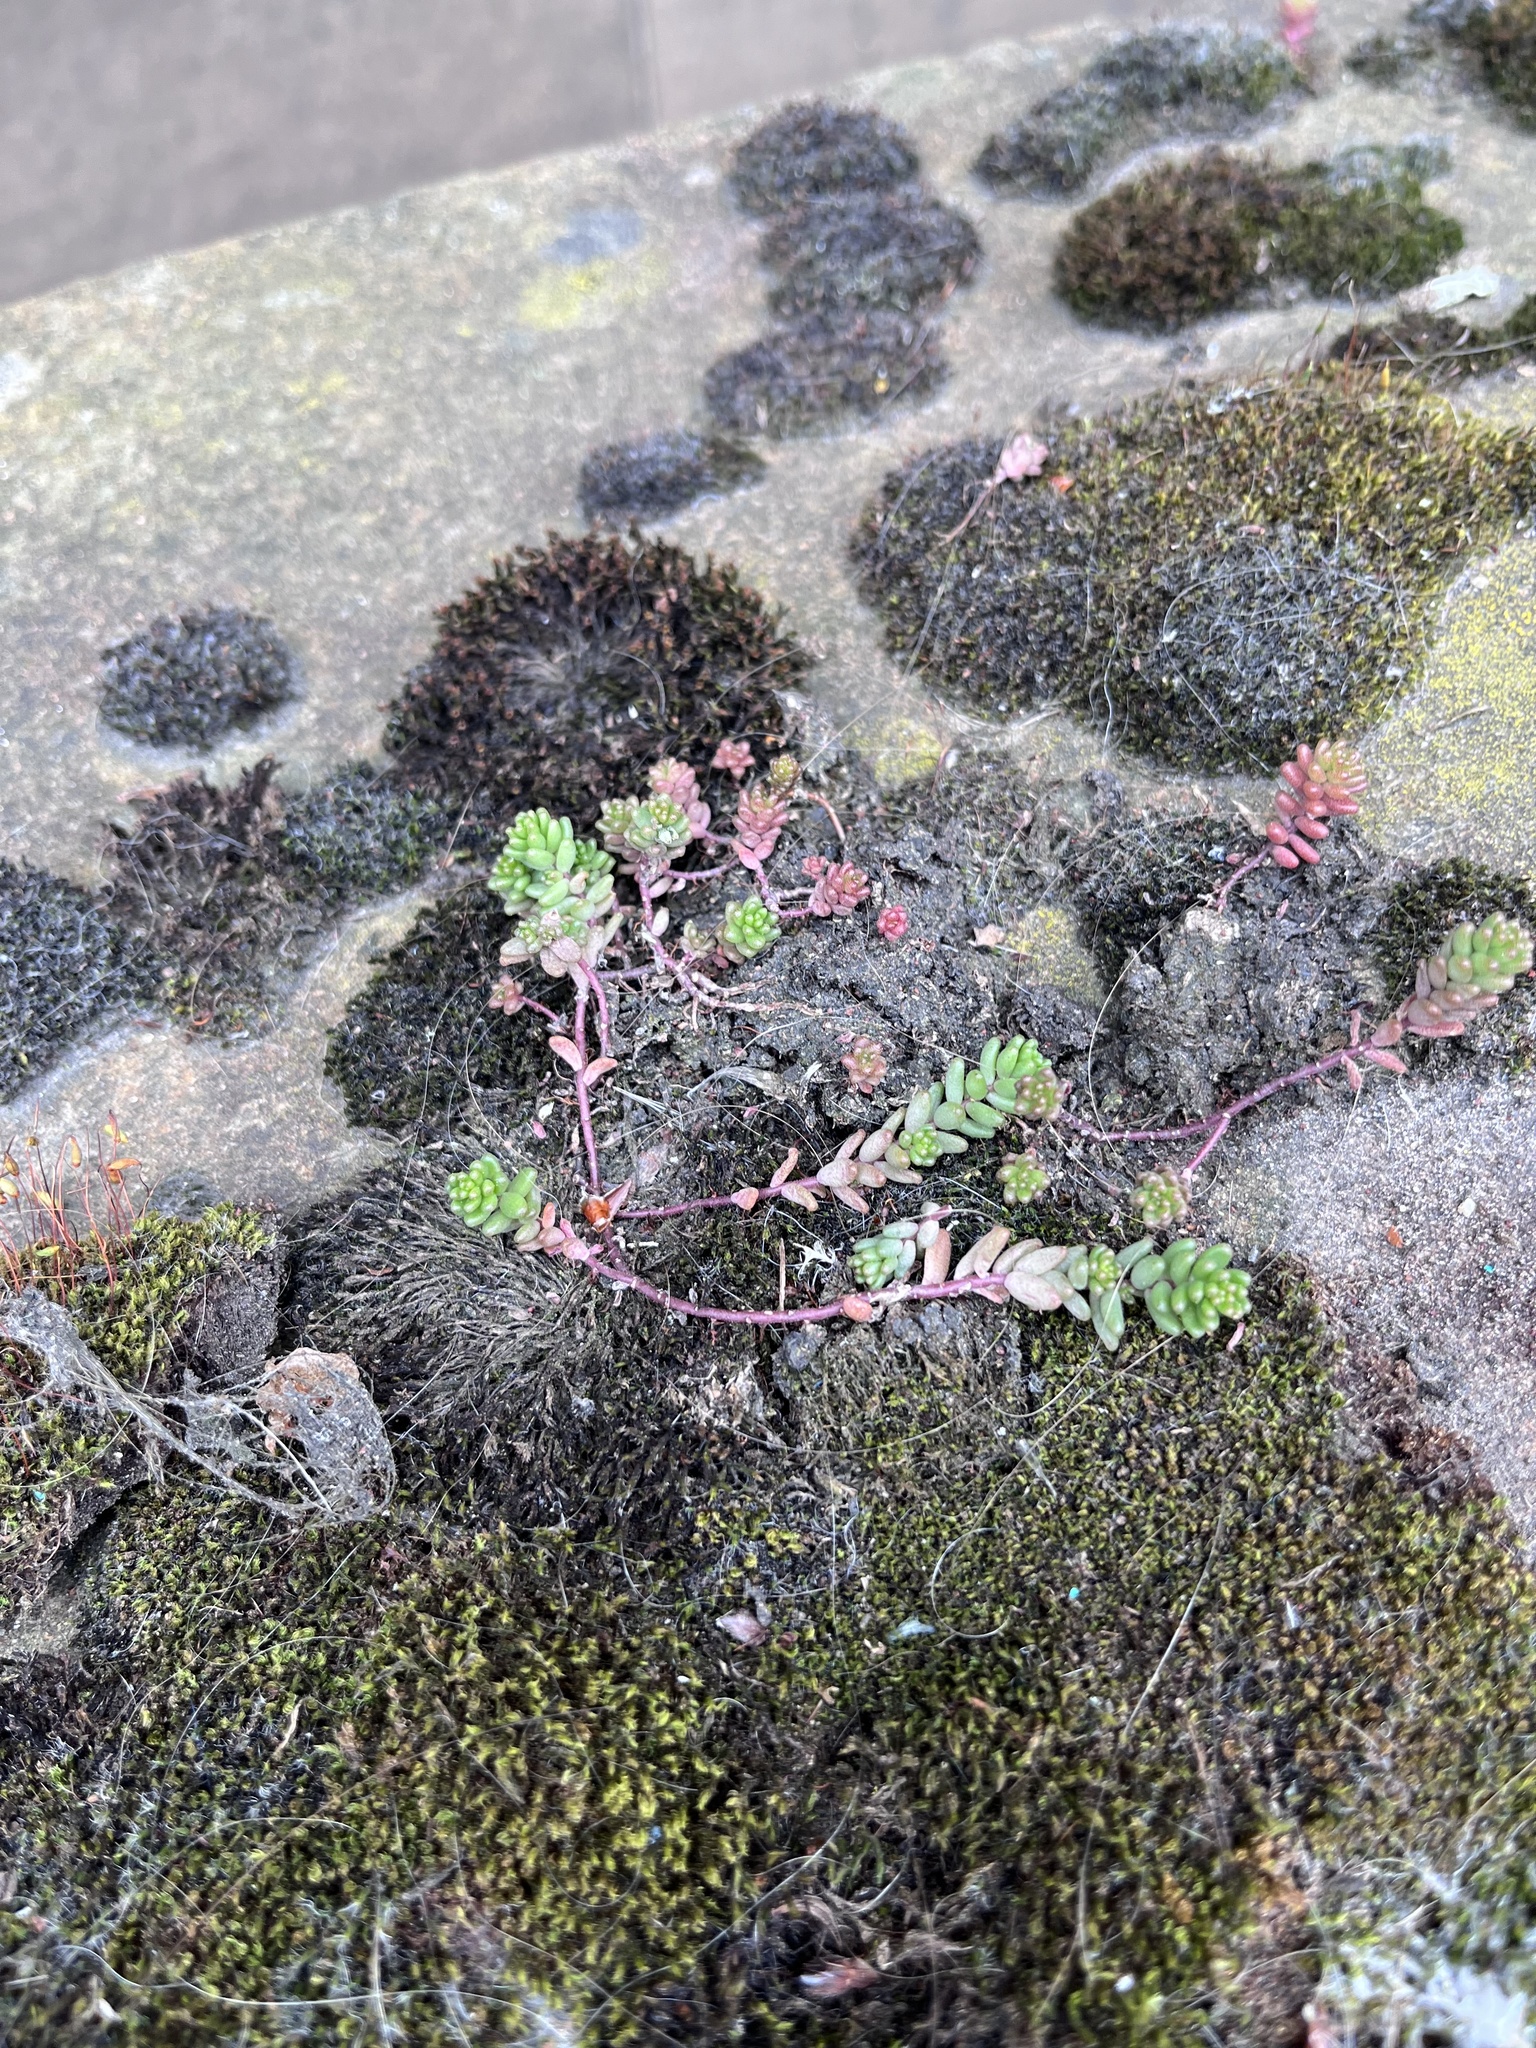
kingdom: Plantae
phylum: Tracheophyta
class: Magnoliopsida
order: Saxifragales
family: Crassulaceae
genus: Sedum
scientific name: Sedum album
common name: White stonecrop
